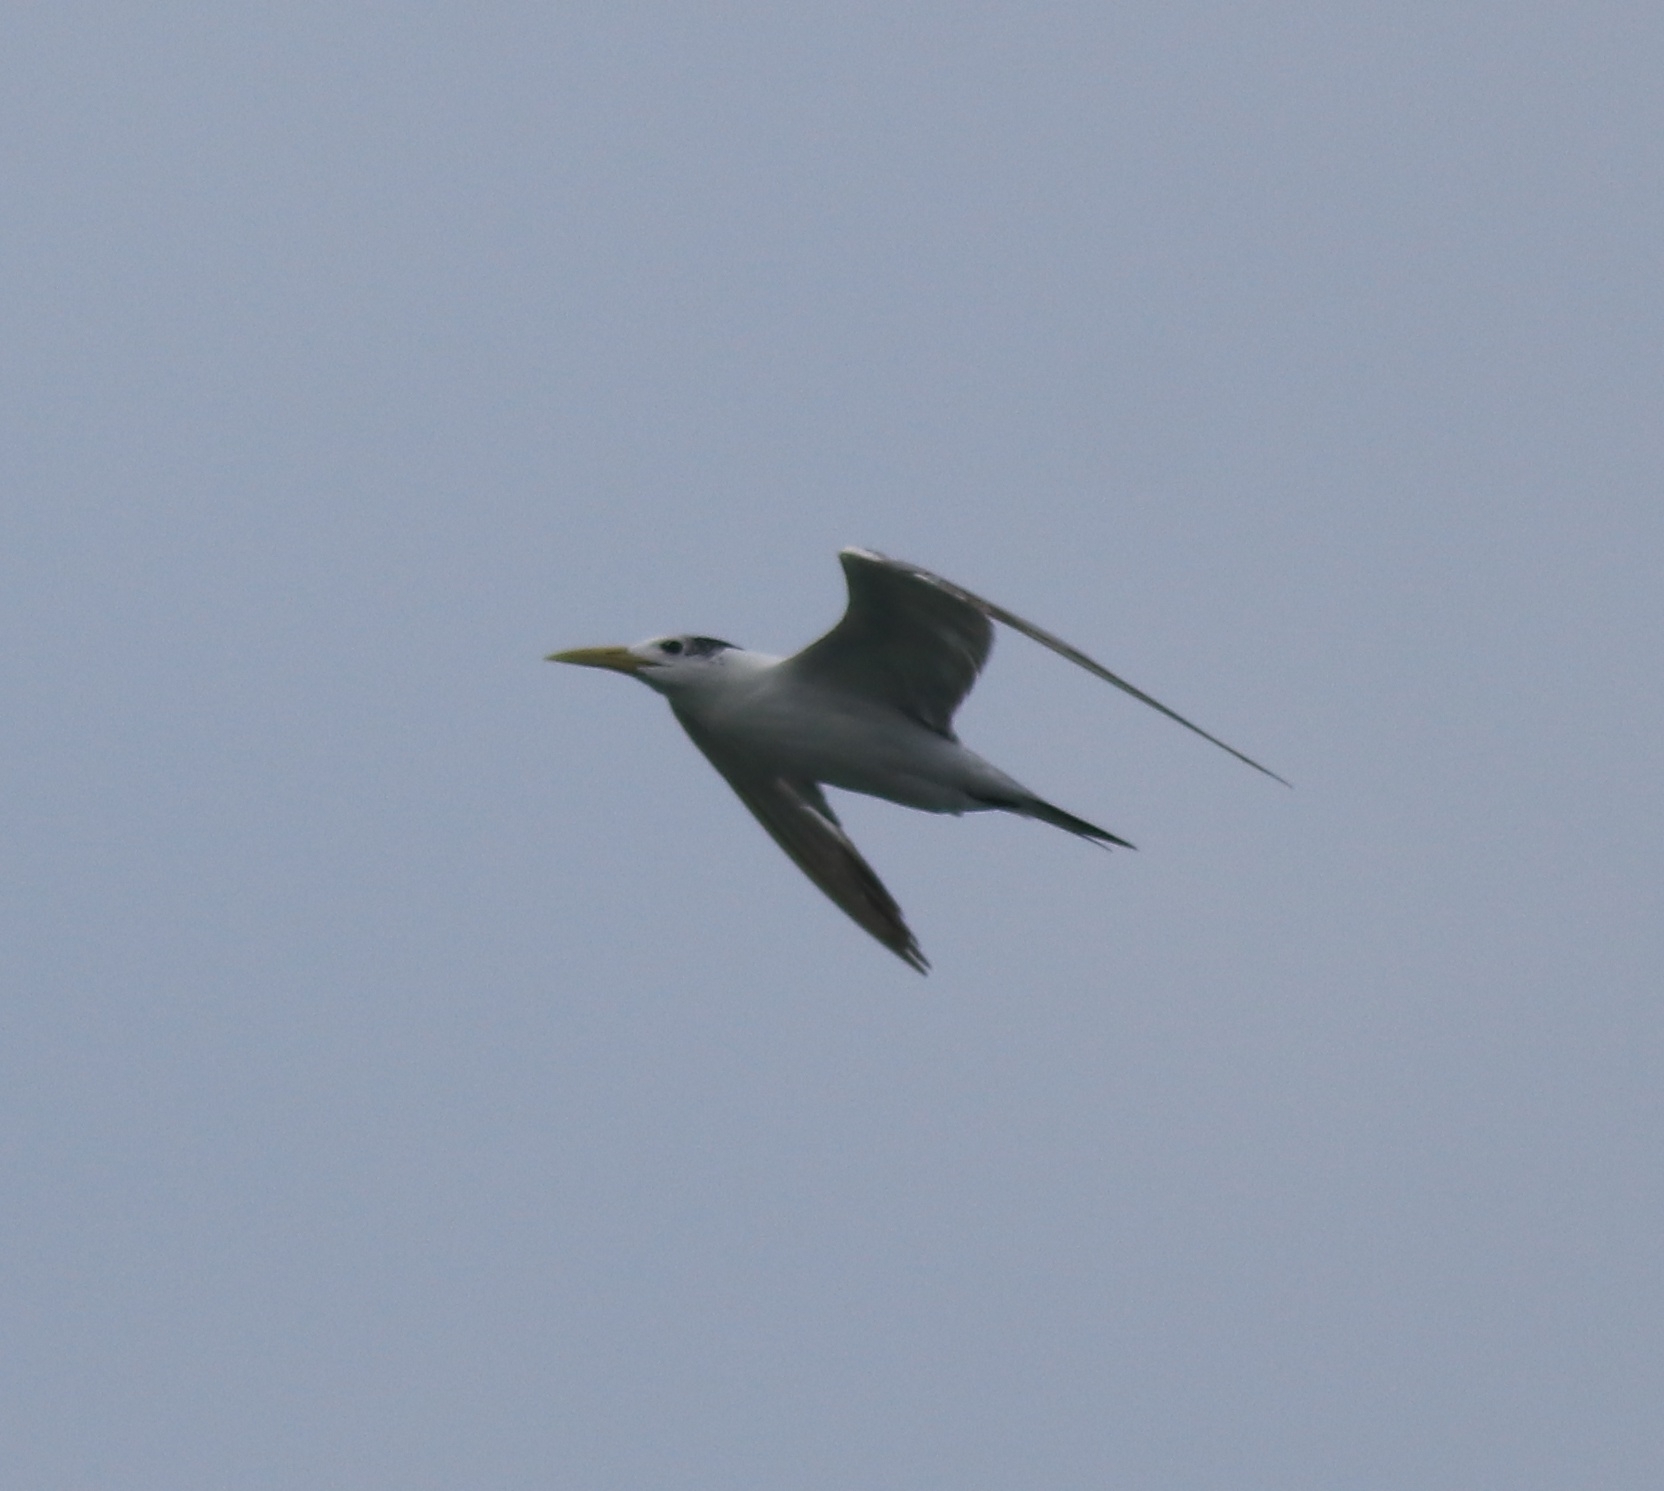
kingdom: Animalia
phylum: Chordata
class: Aves
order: Charadriiformes
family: Laridae
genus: Thalasseus
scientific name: Thalasseus bergii
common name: Greater crested tern
